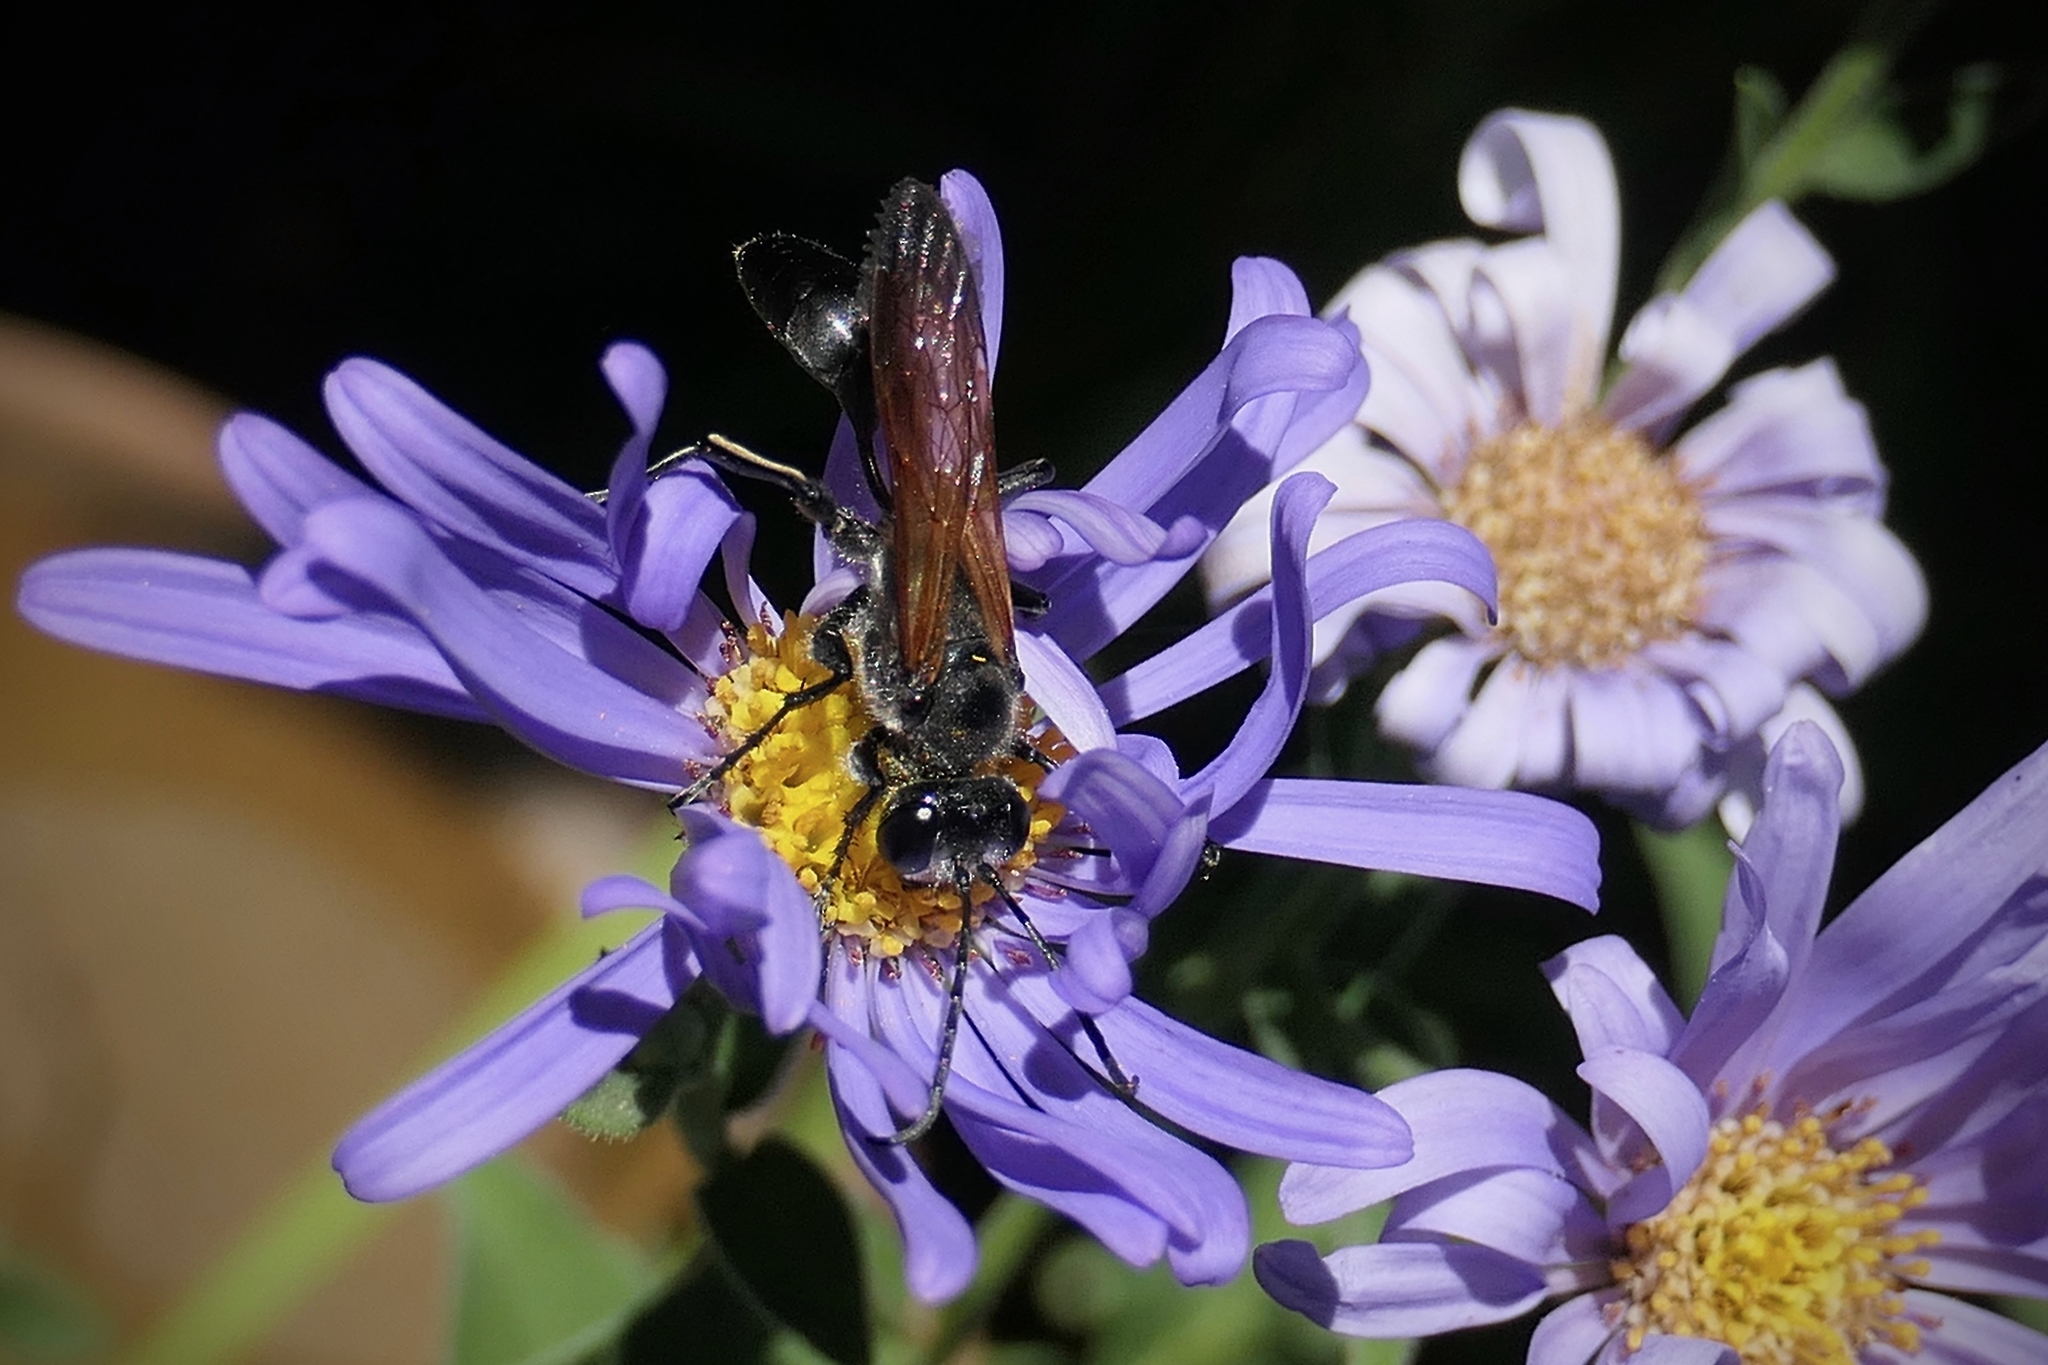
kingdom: Animalia
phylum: Arthropoda
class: Insecta
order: Hymenoptera
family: Sphecidae
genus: Isodontia
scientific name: Isodontia mexicana
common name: Mud dauber
